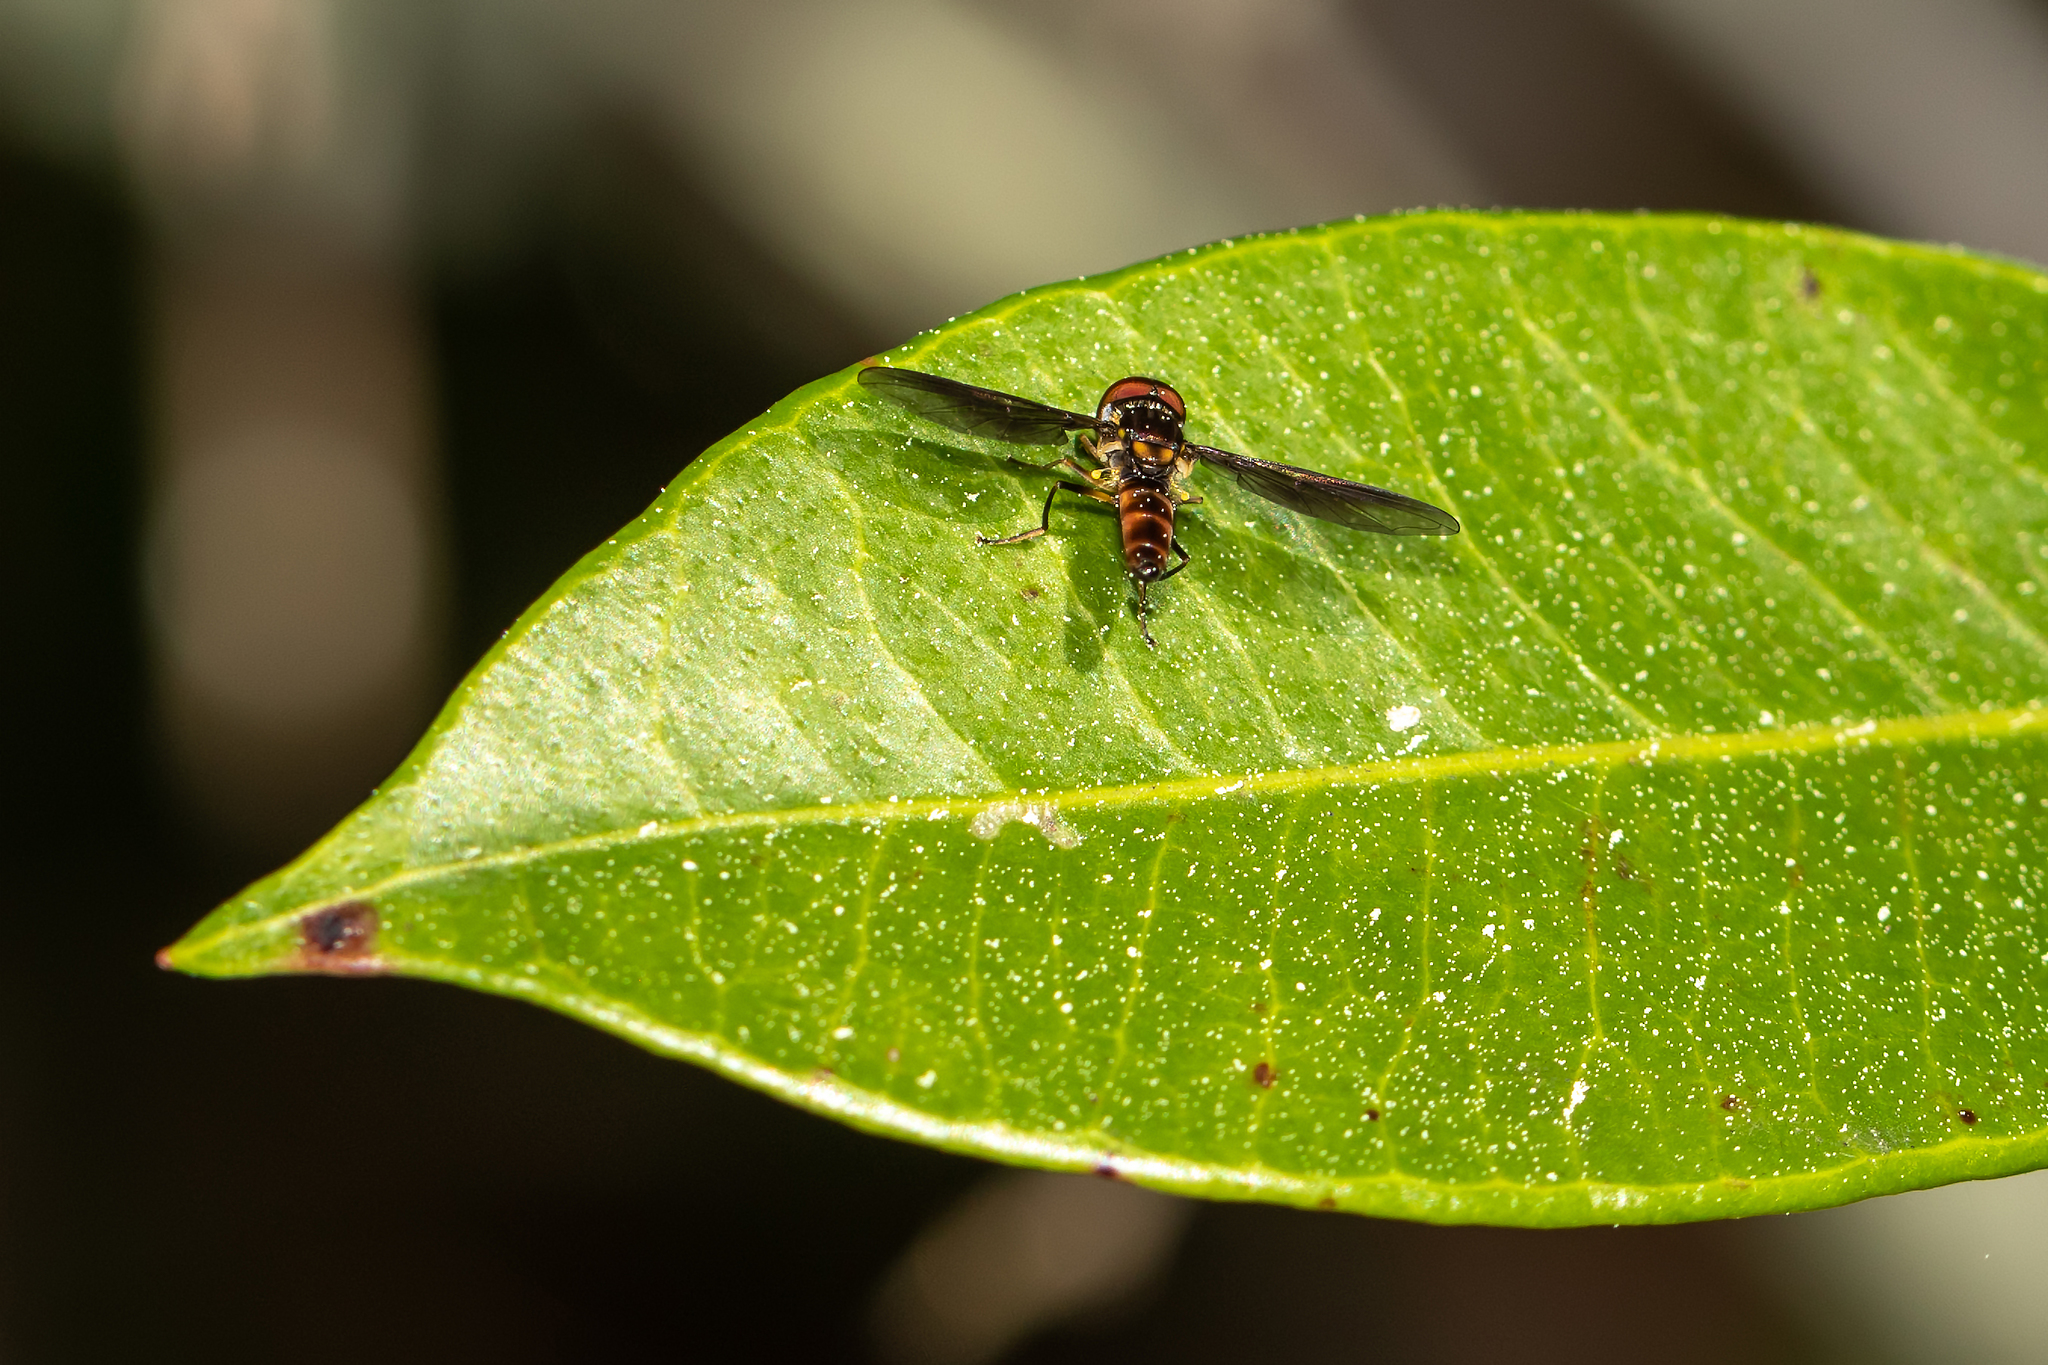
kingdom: Animalia
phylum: Arthropoda
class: Insecta
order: Diptera
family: Syrphidae
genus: Ocyptamus
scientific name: Ocyptamus antiphates
